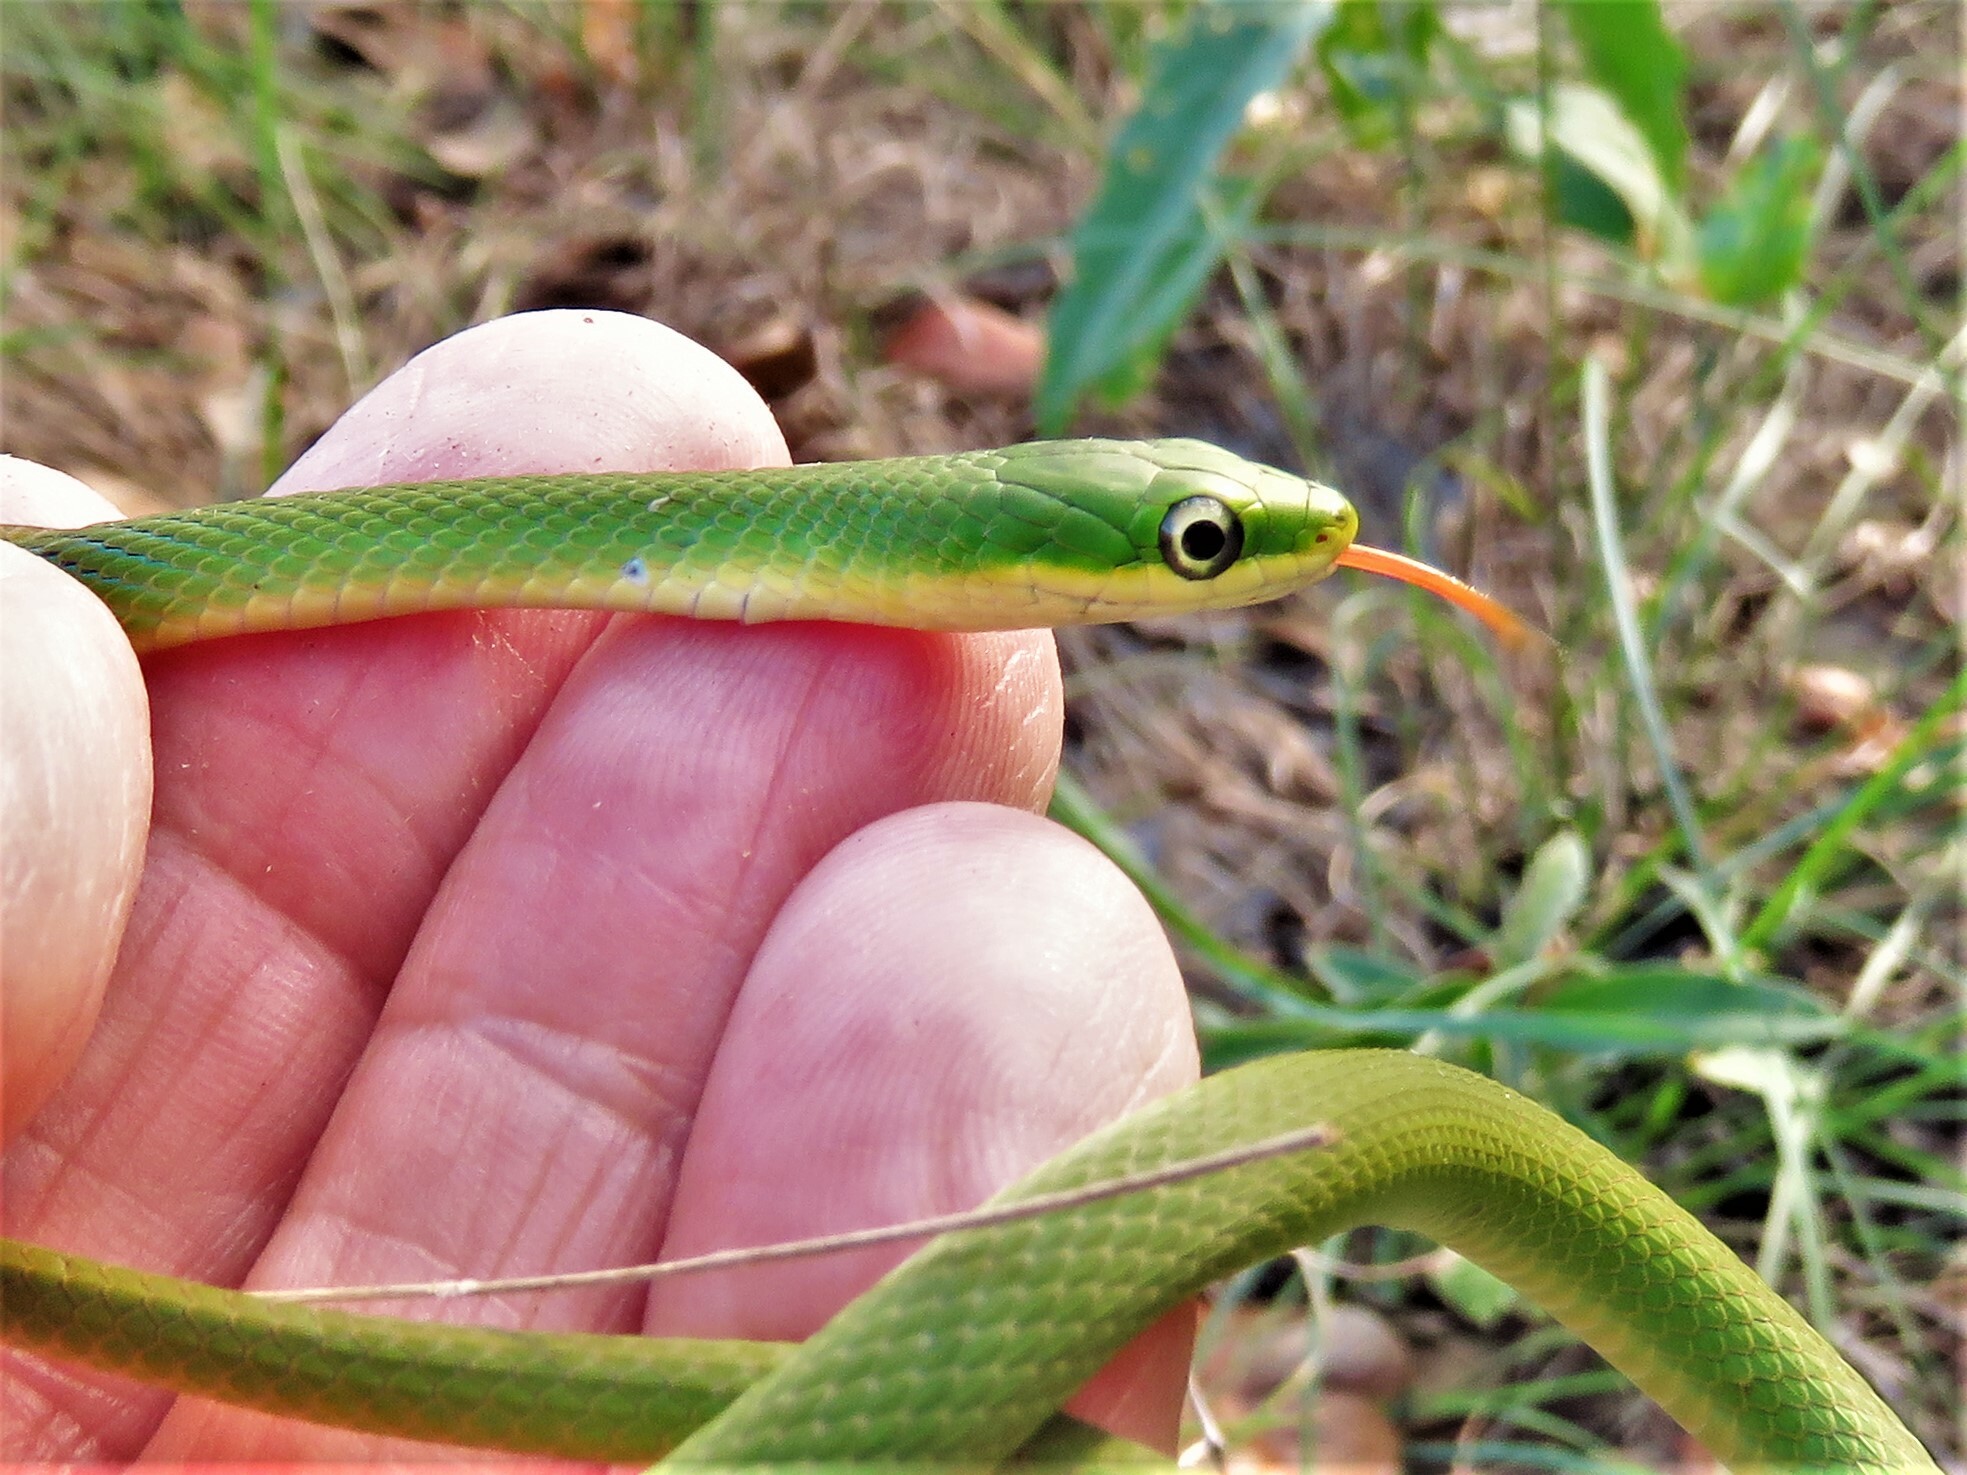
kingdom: Animalia
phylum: Chordata
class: Squamata
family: Colubridae
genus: Opheodrys
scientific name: Opheodrys aestivus
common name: Rough greensnake
